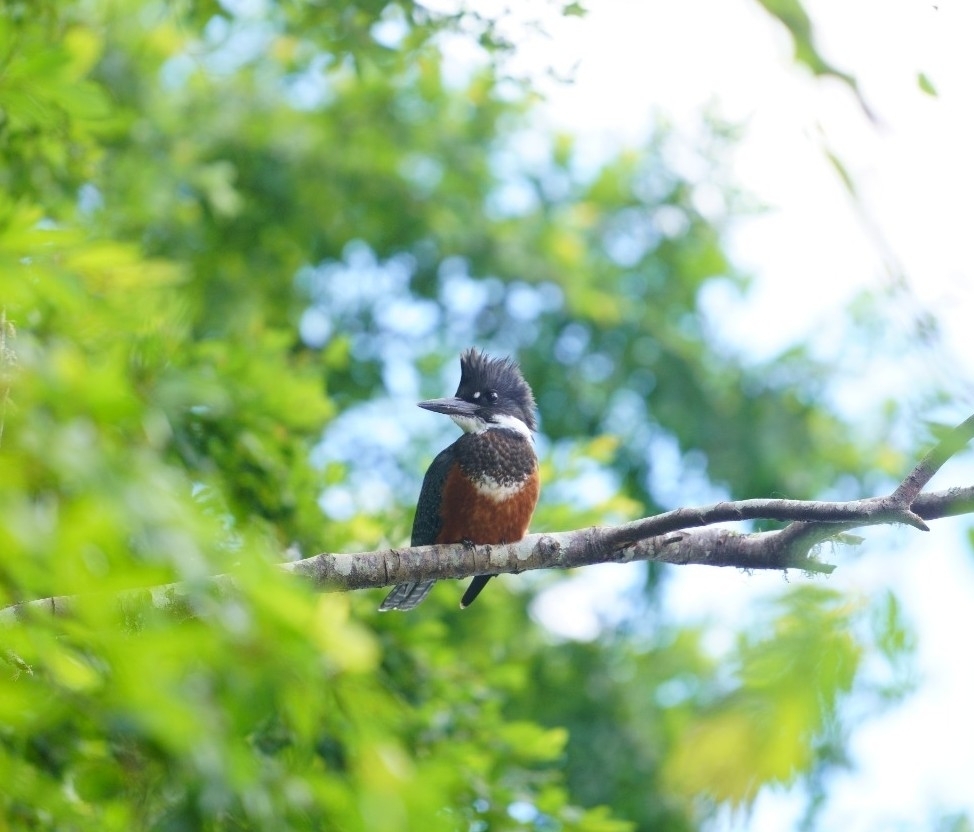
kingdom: Animalia
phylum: Chordata
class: Aves
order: Coraciiformes
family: Alcedinidae
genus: Megaceryle
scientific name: Megaceryle torquata
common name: Ringed kingfisher
